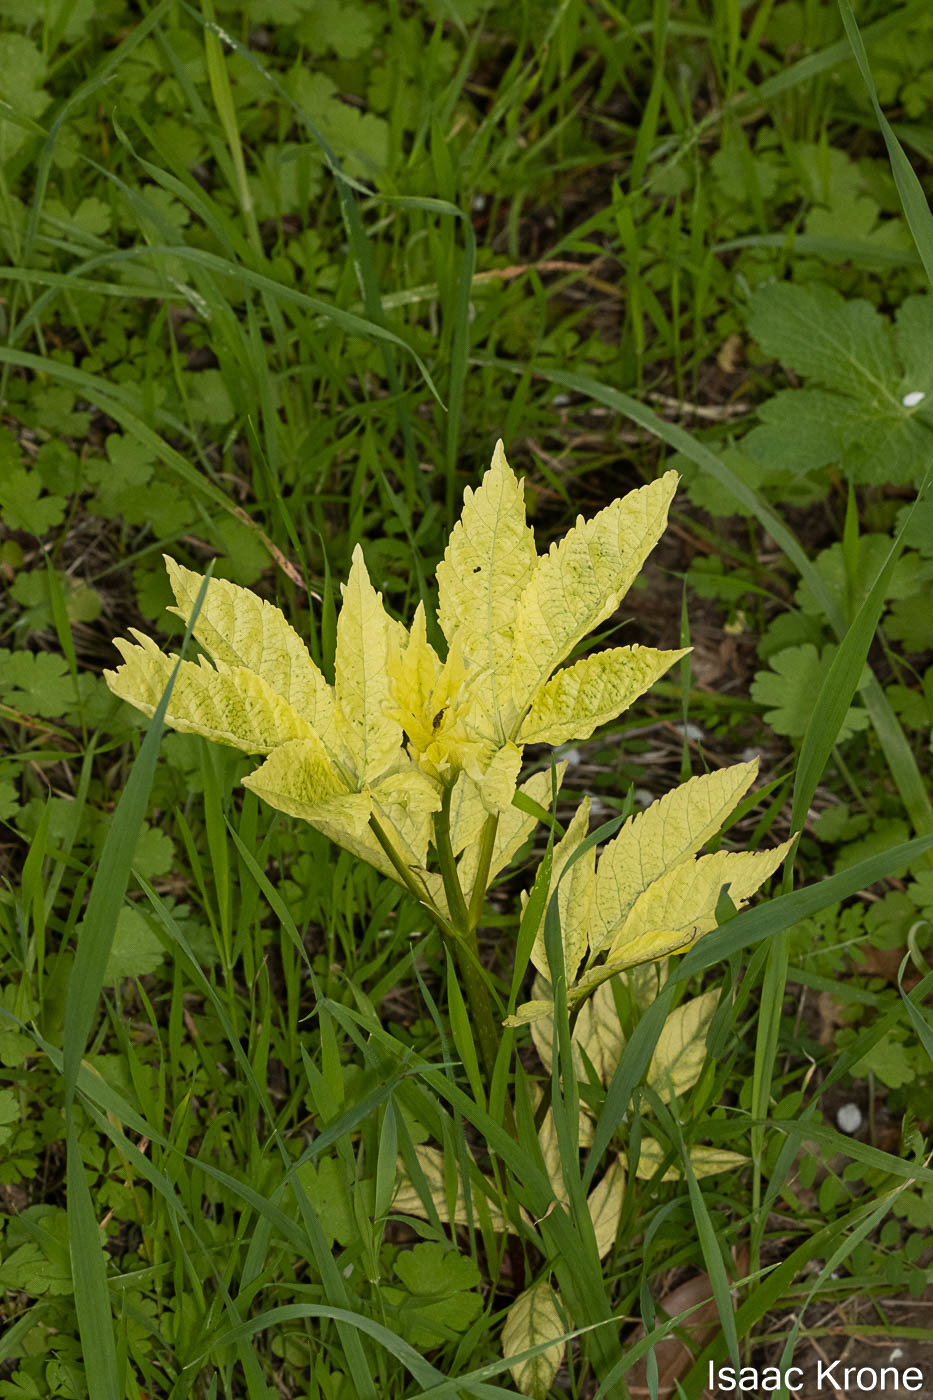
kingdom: Plantae
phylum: Tracheophyta
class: Magnoliopsida
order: Sapindales
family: Sapindaceae
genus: Aesculus
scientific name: Aesculus californica
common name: California buckeye
